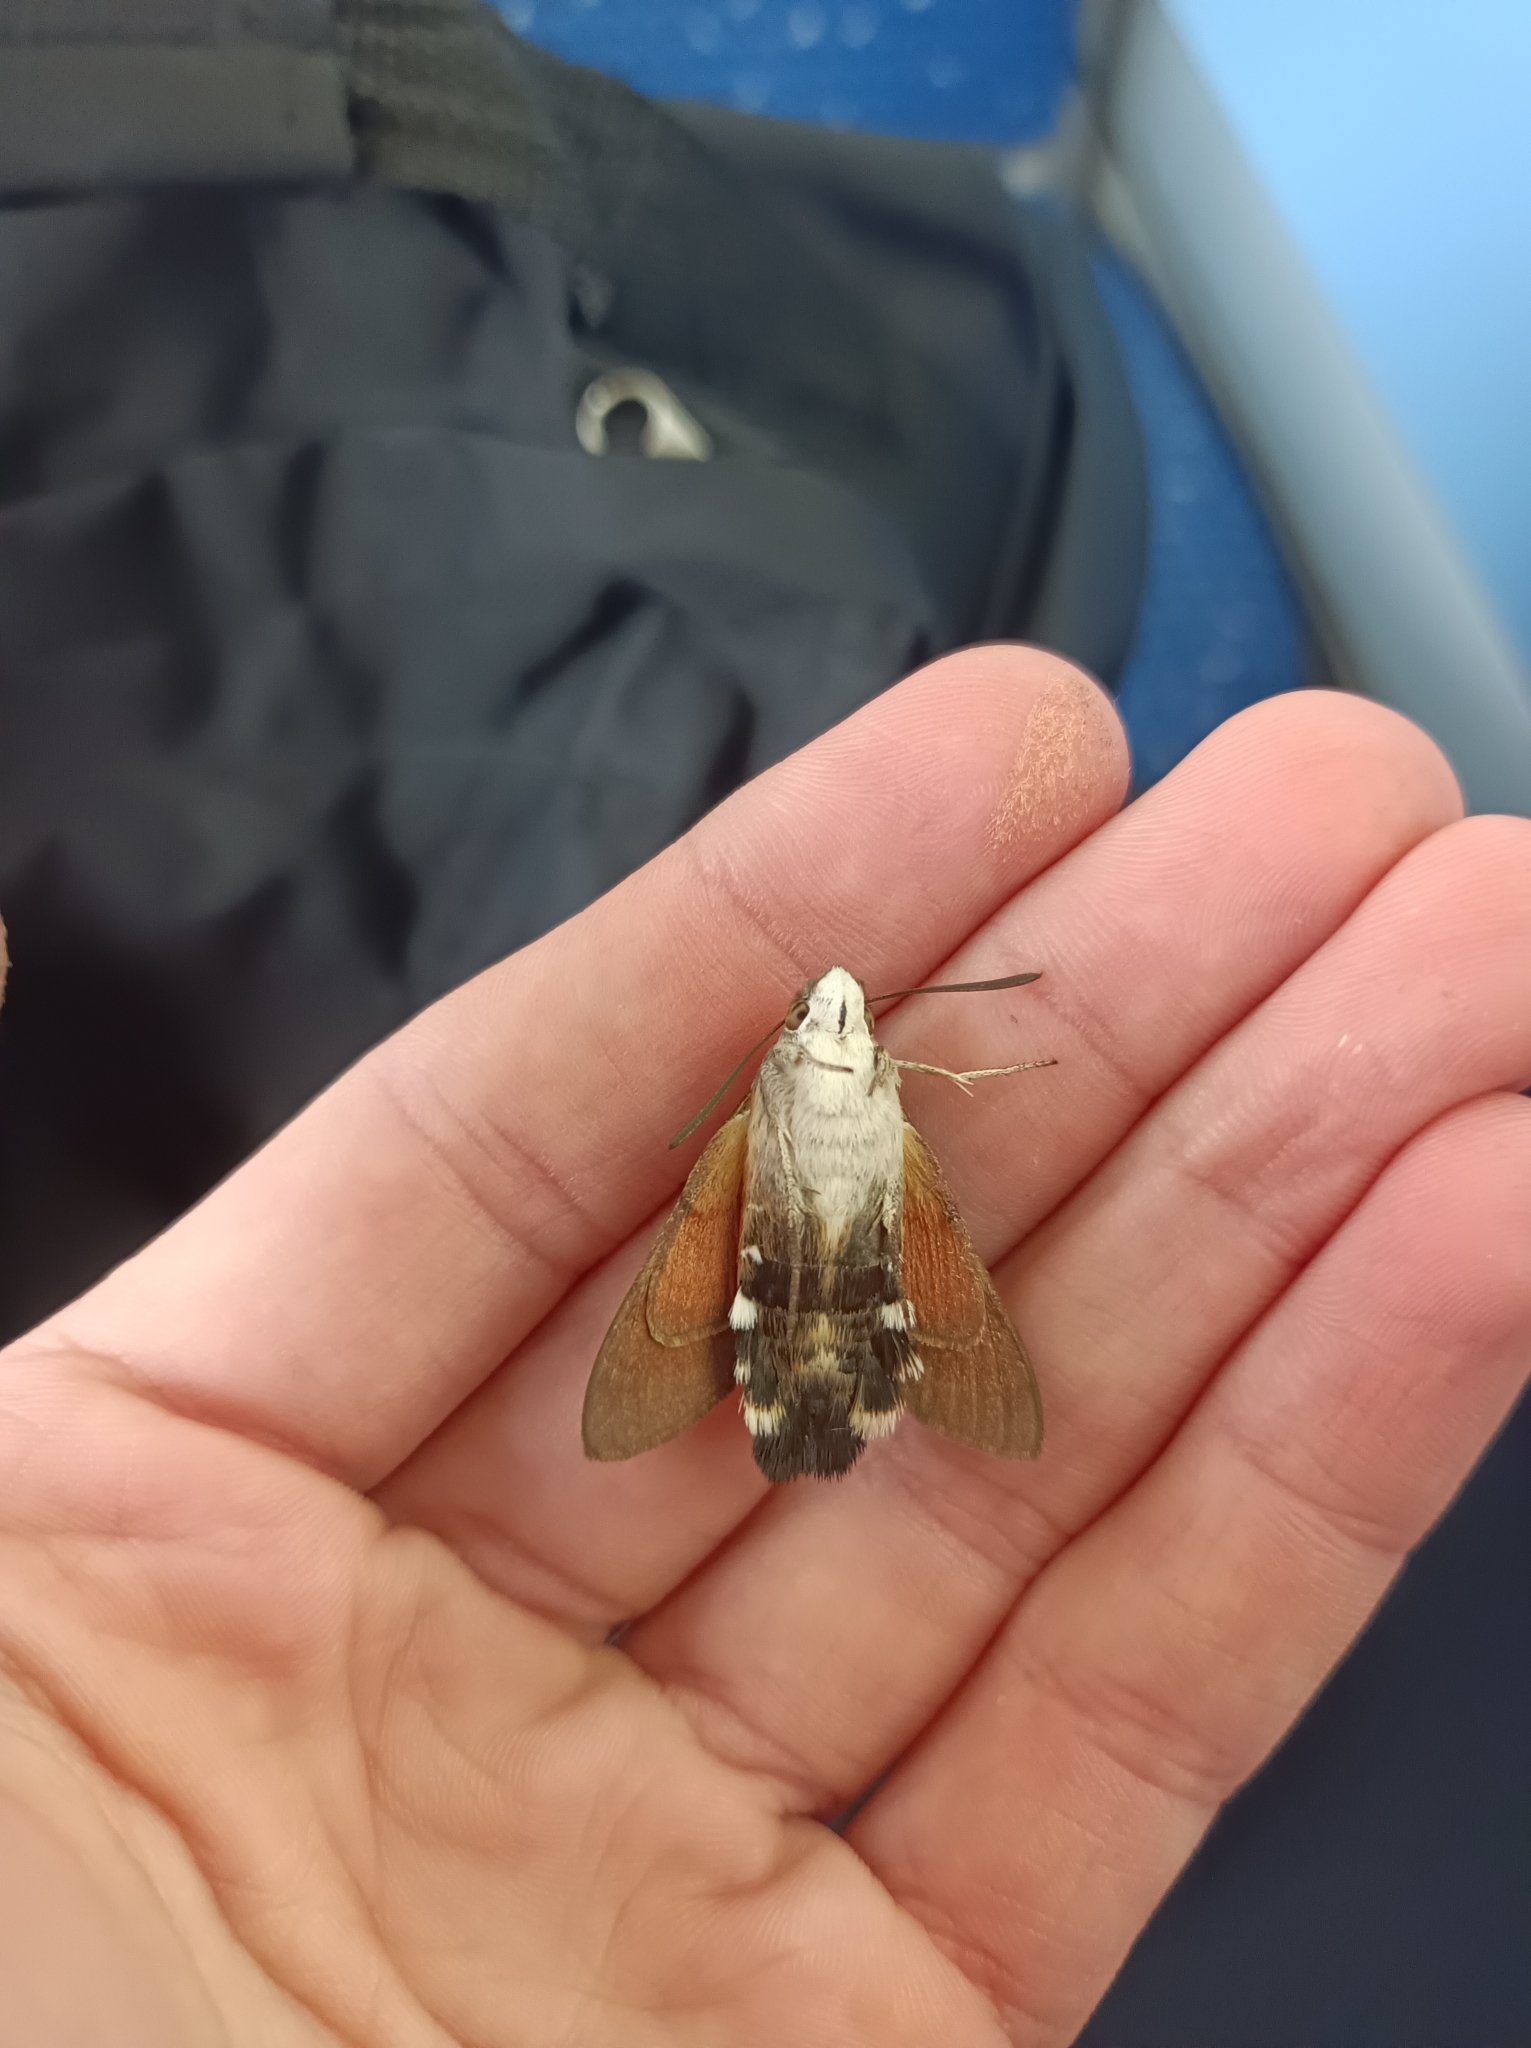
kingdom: Animalia
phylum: Arthropoda
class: Insecta
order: Lepidoptera
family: Sphingidae
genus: Macroglossum
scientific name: Macroglossum stellatarum
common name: Humming-bird hawk-moth
